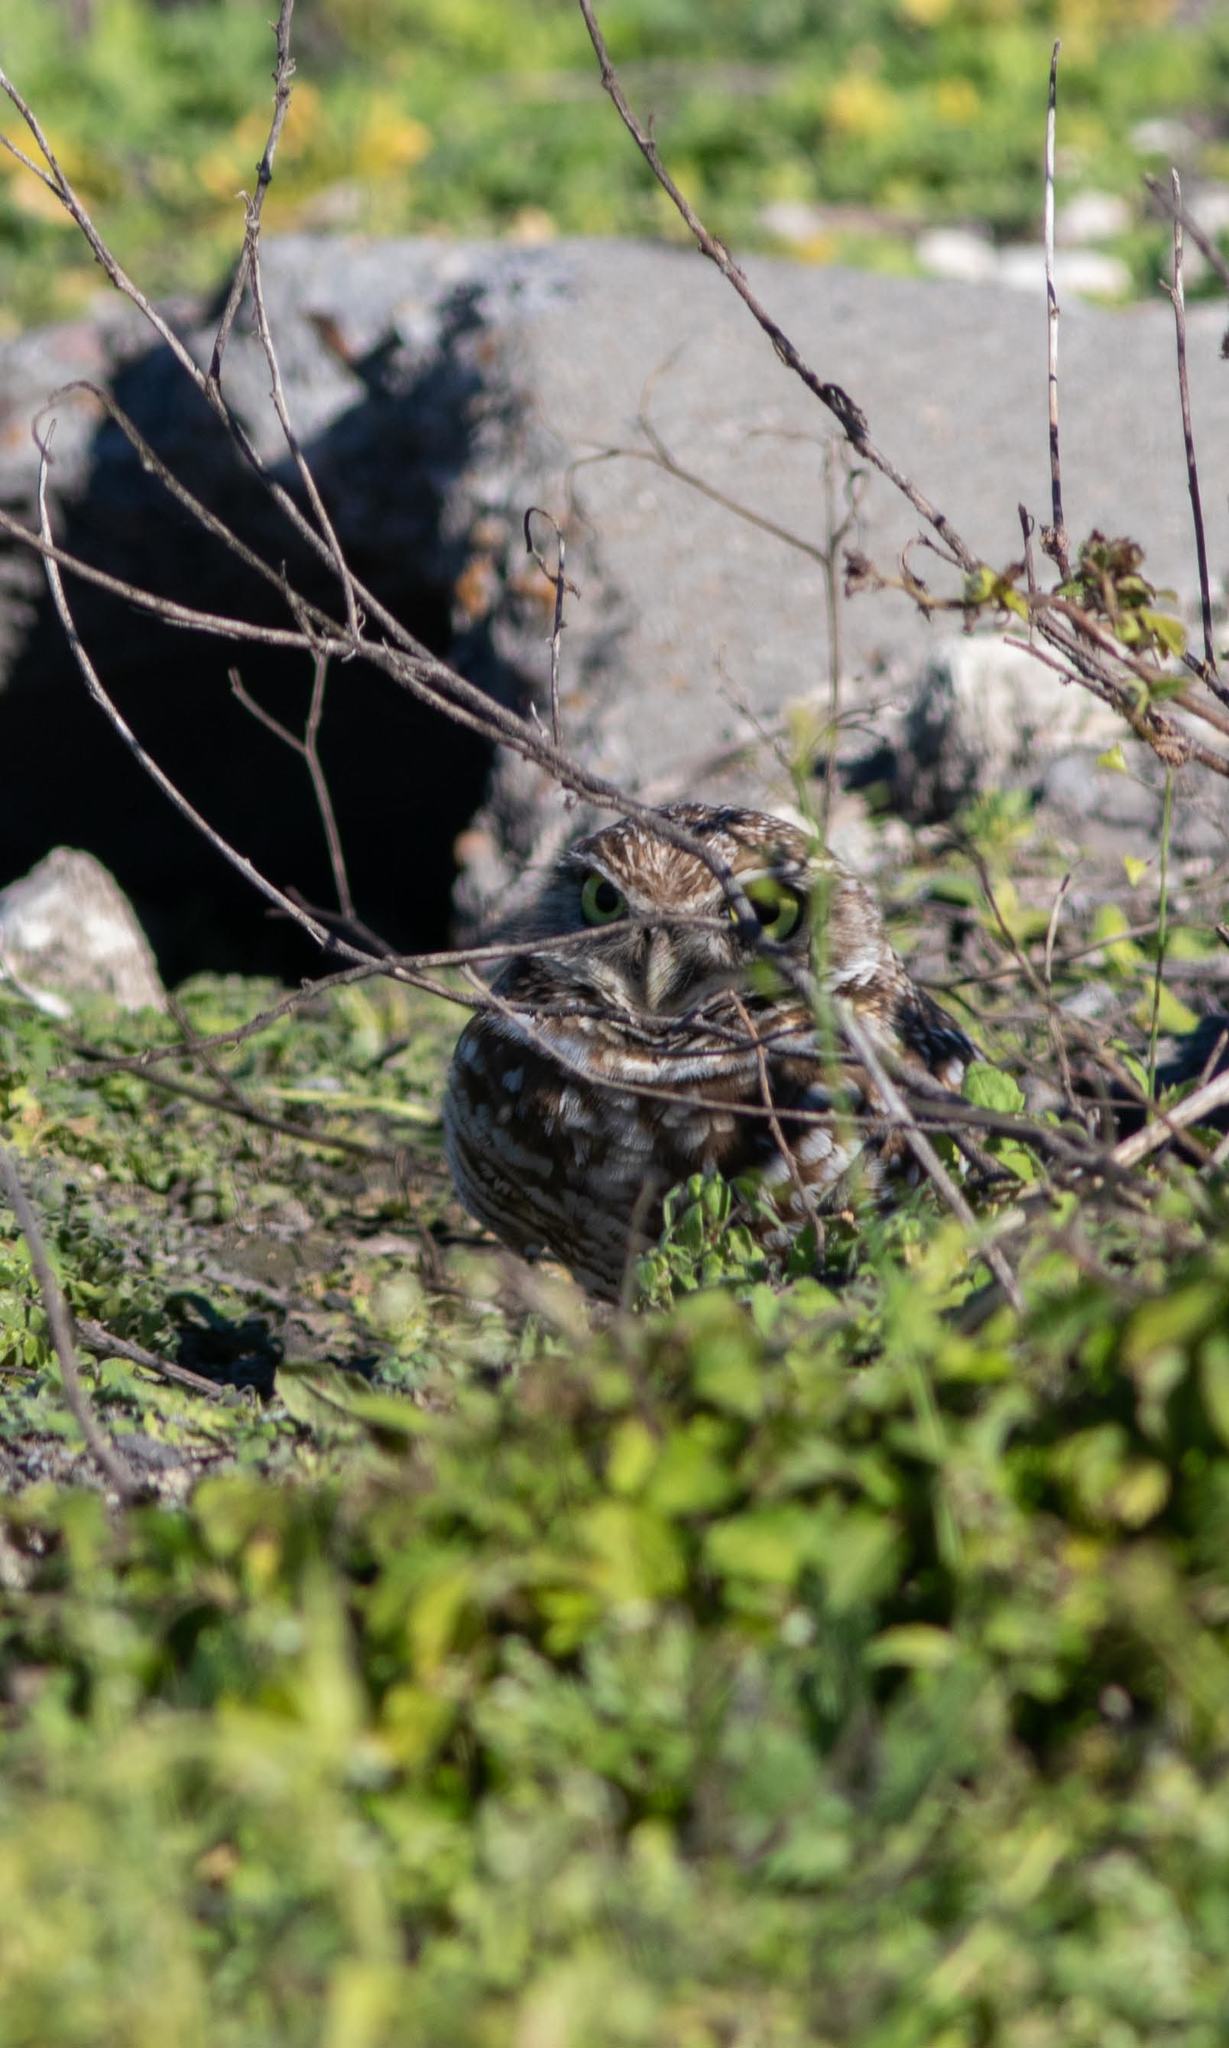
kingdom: Animalia
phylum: Chordata
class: Aves
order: Strigiformes
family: Strigidae
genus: Athene
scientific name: Athene cunicularia
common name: Burrowing owl
